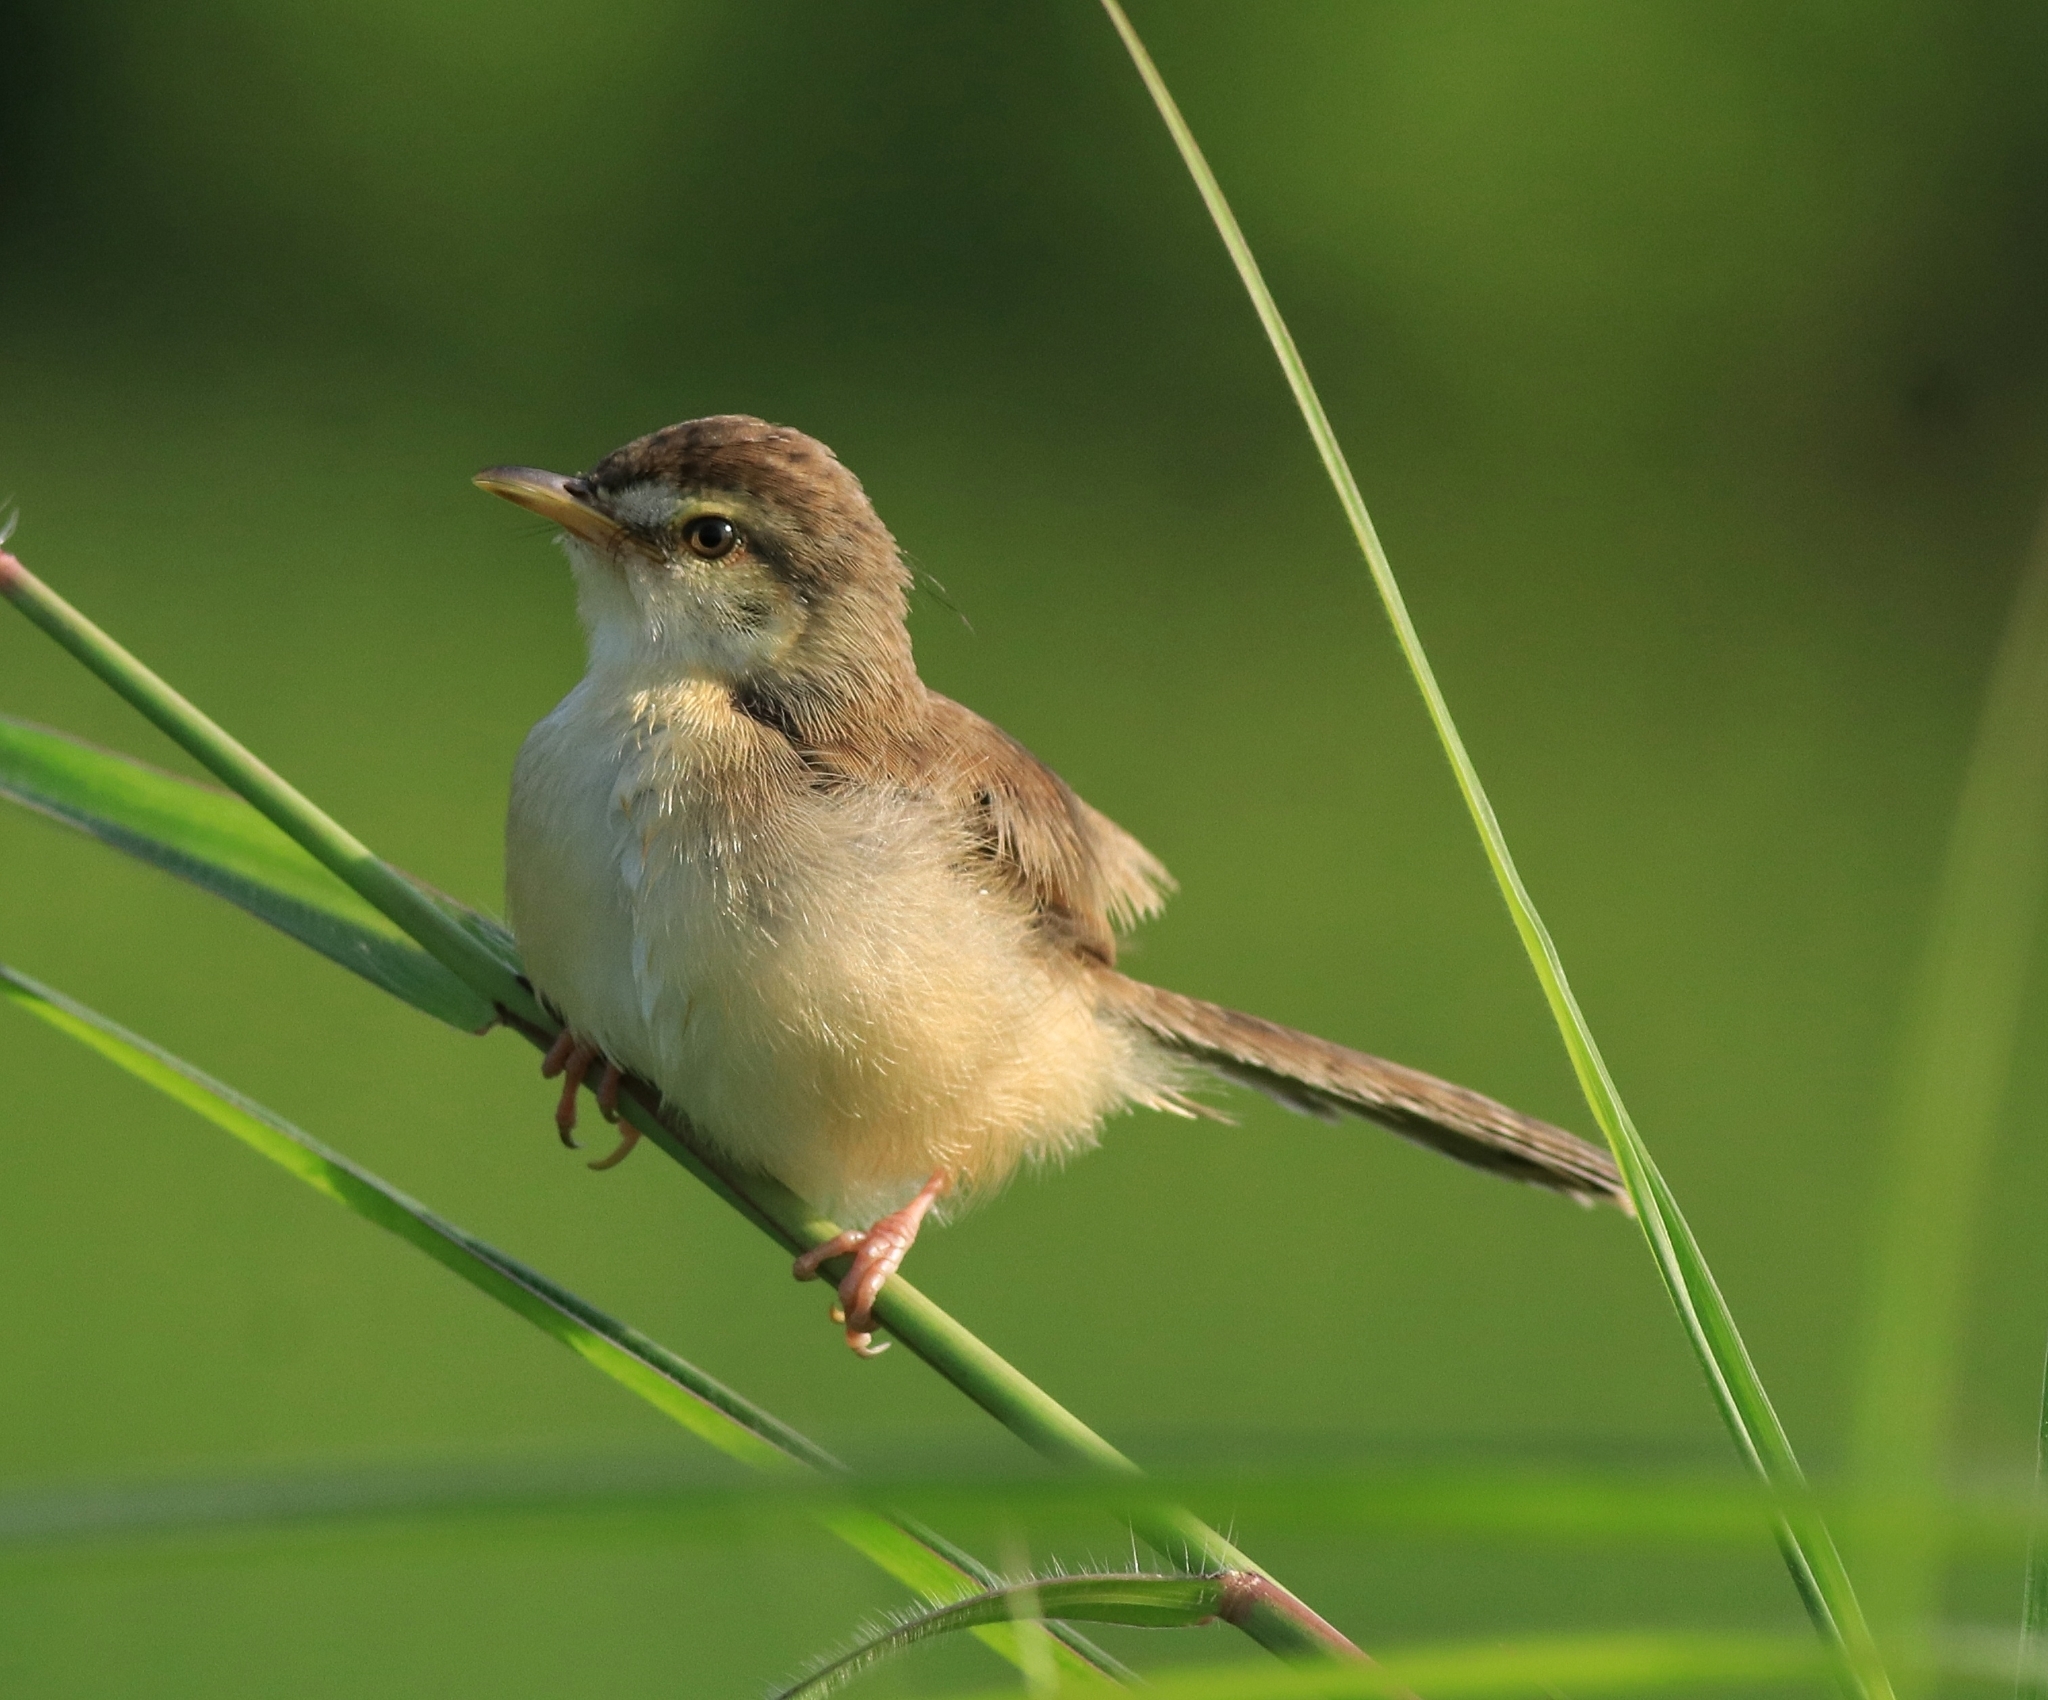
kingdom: Animalia
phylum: Chordata
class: Aves
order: Passeriformes
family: Cisticolidae
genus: Prinia
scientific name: Prinia inornata
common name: Plain prinia
